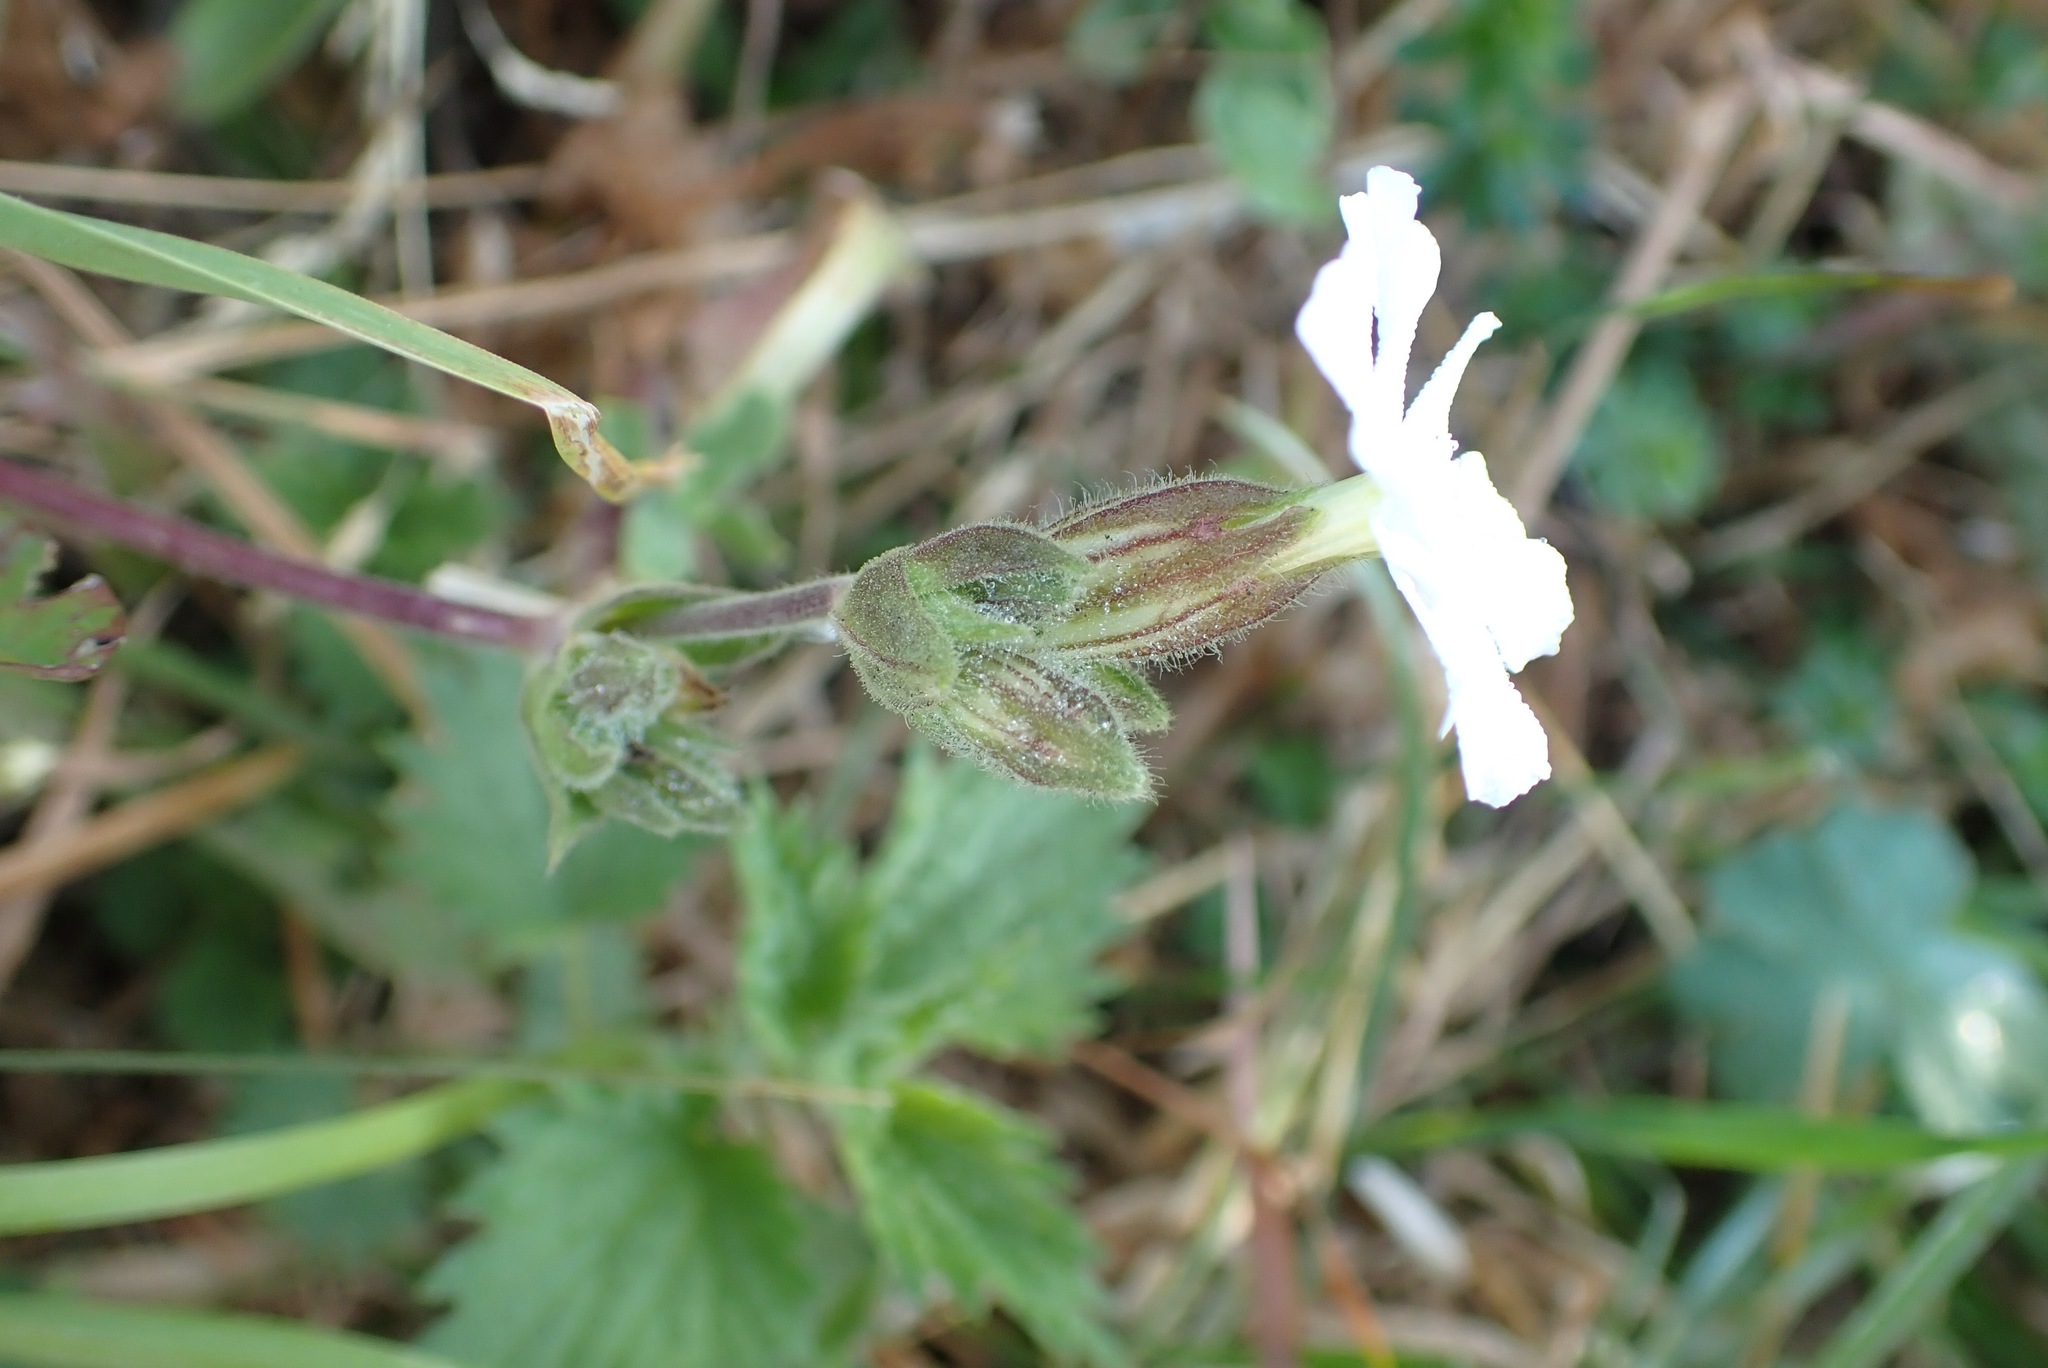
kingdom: Plantae
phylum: Tracheophyta
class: Magnoliopsida
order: Caryophyllales
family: Caryophyllaceae
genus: Silene
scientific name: Silene latifolia
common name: White campion
